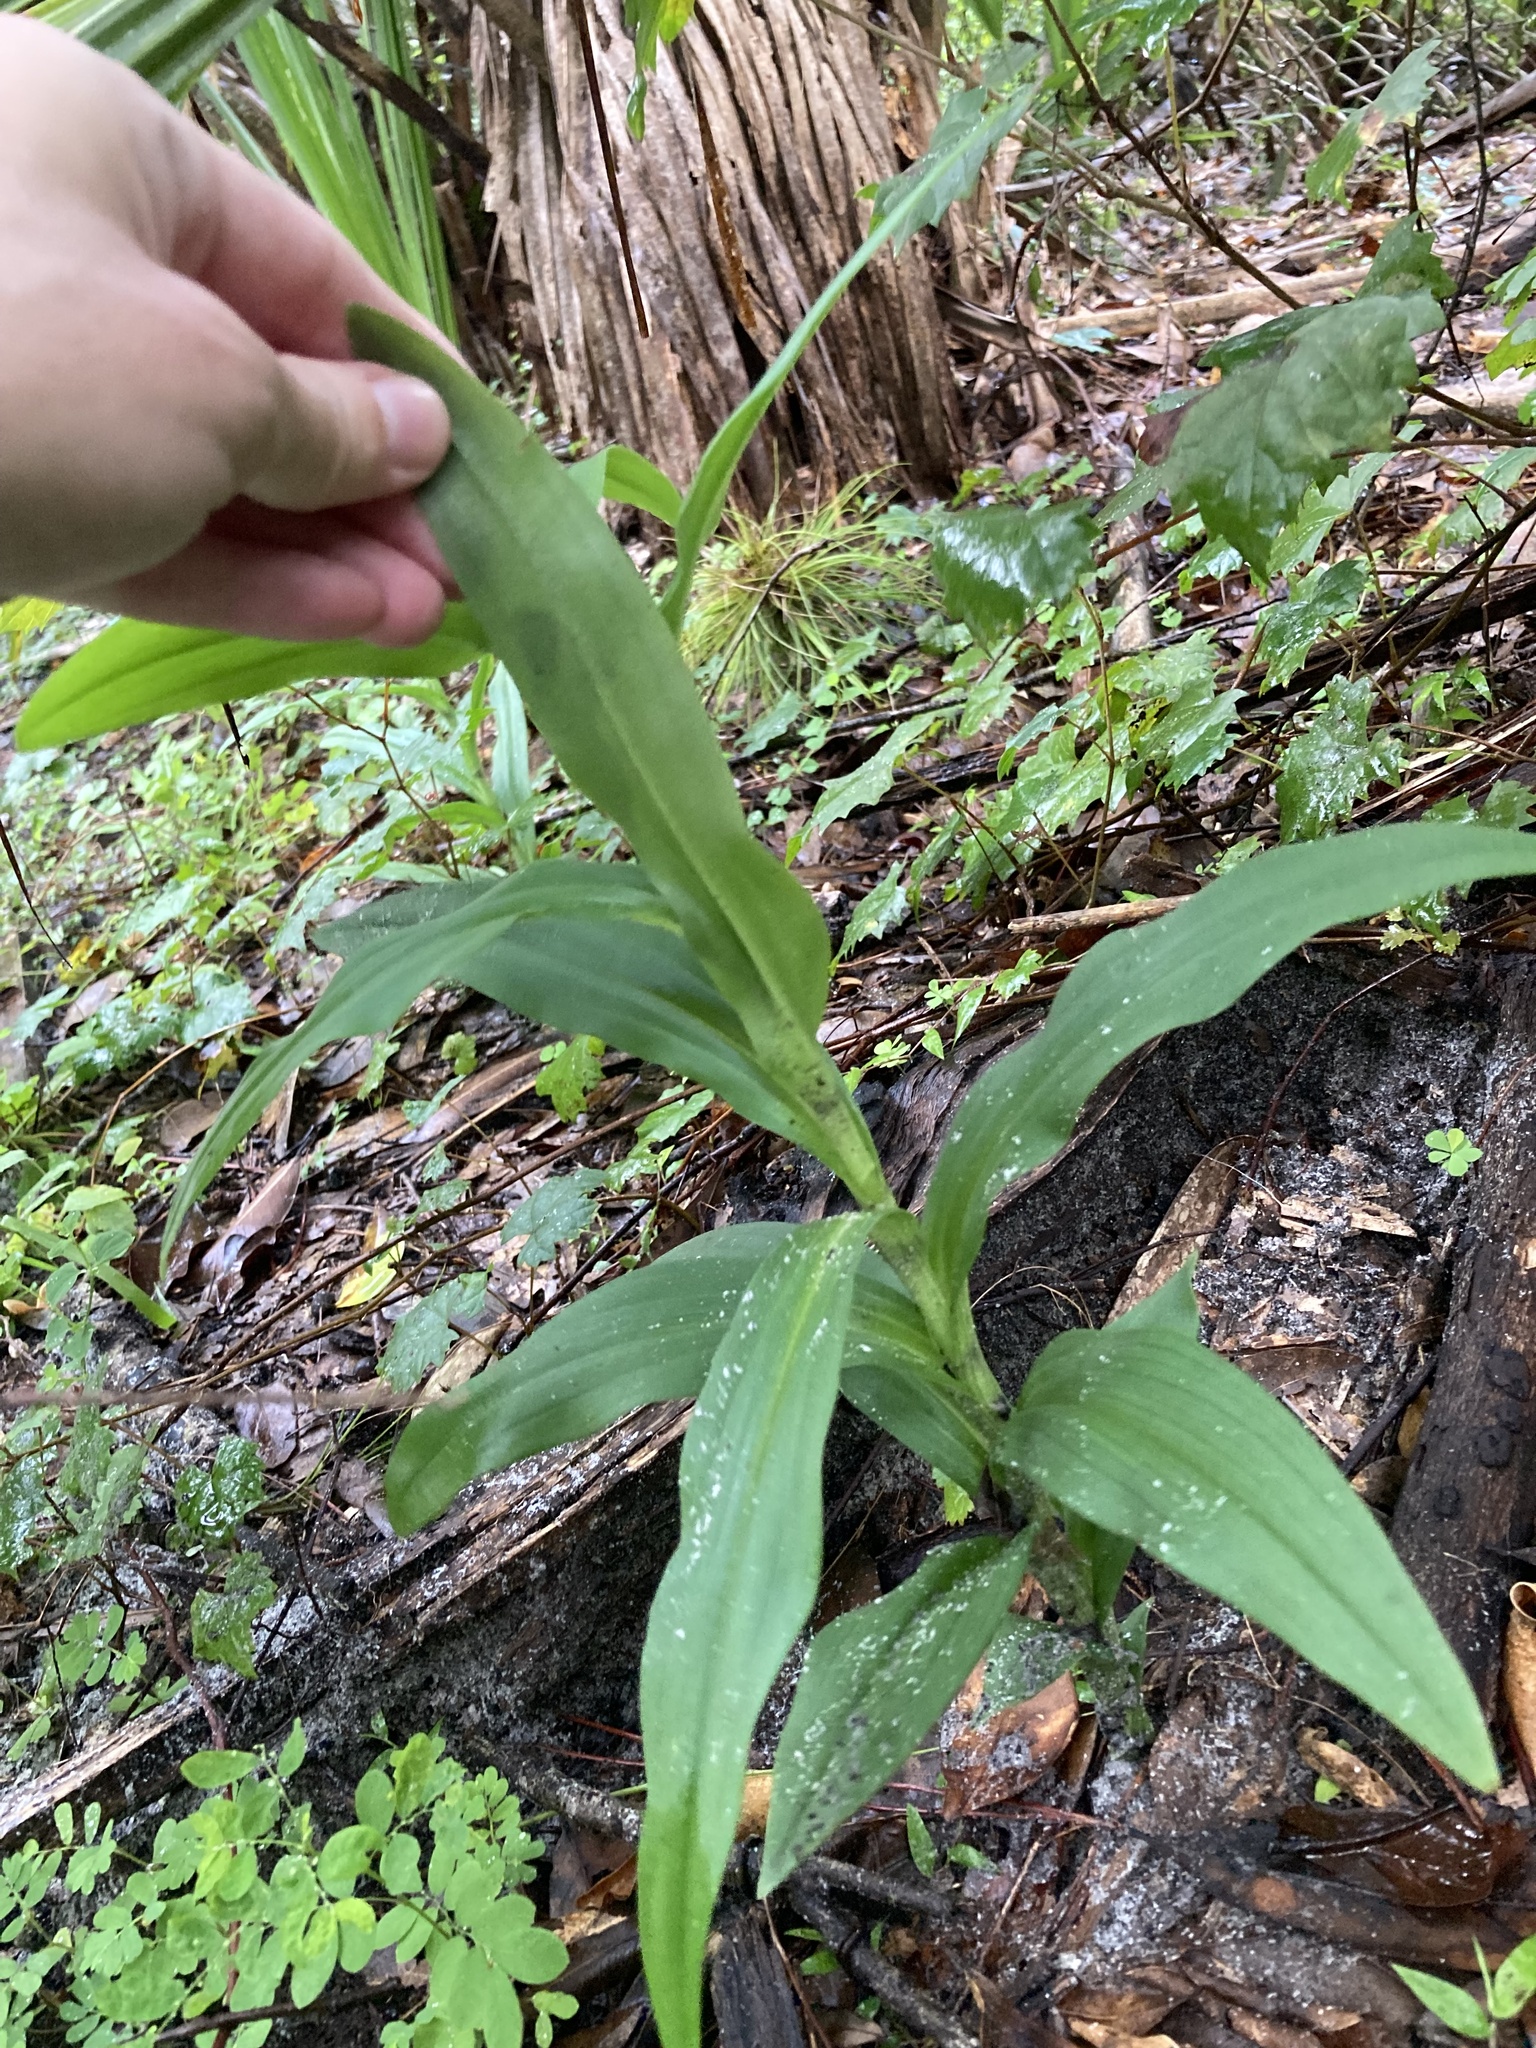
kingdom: Plantae
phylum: Tracheophyta
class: Liliopsida
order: Asparagales
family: Orchidaceae
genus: Habenaria
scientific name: Habenaria floribunda
